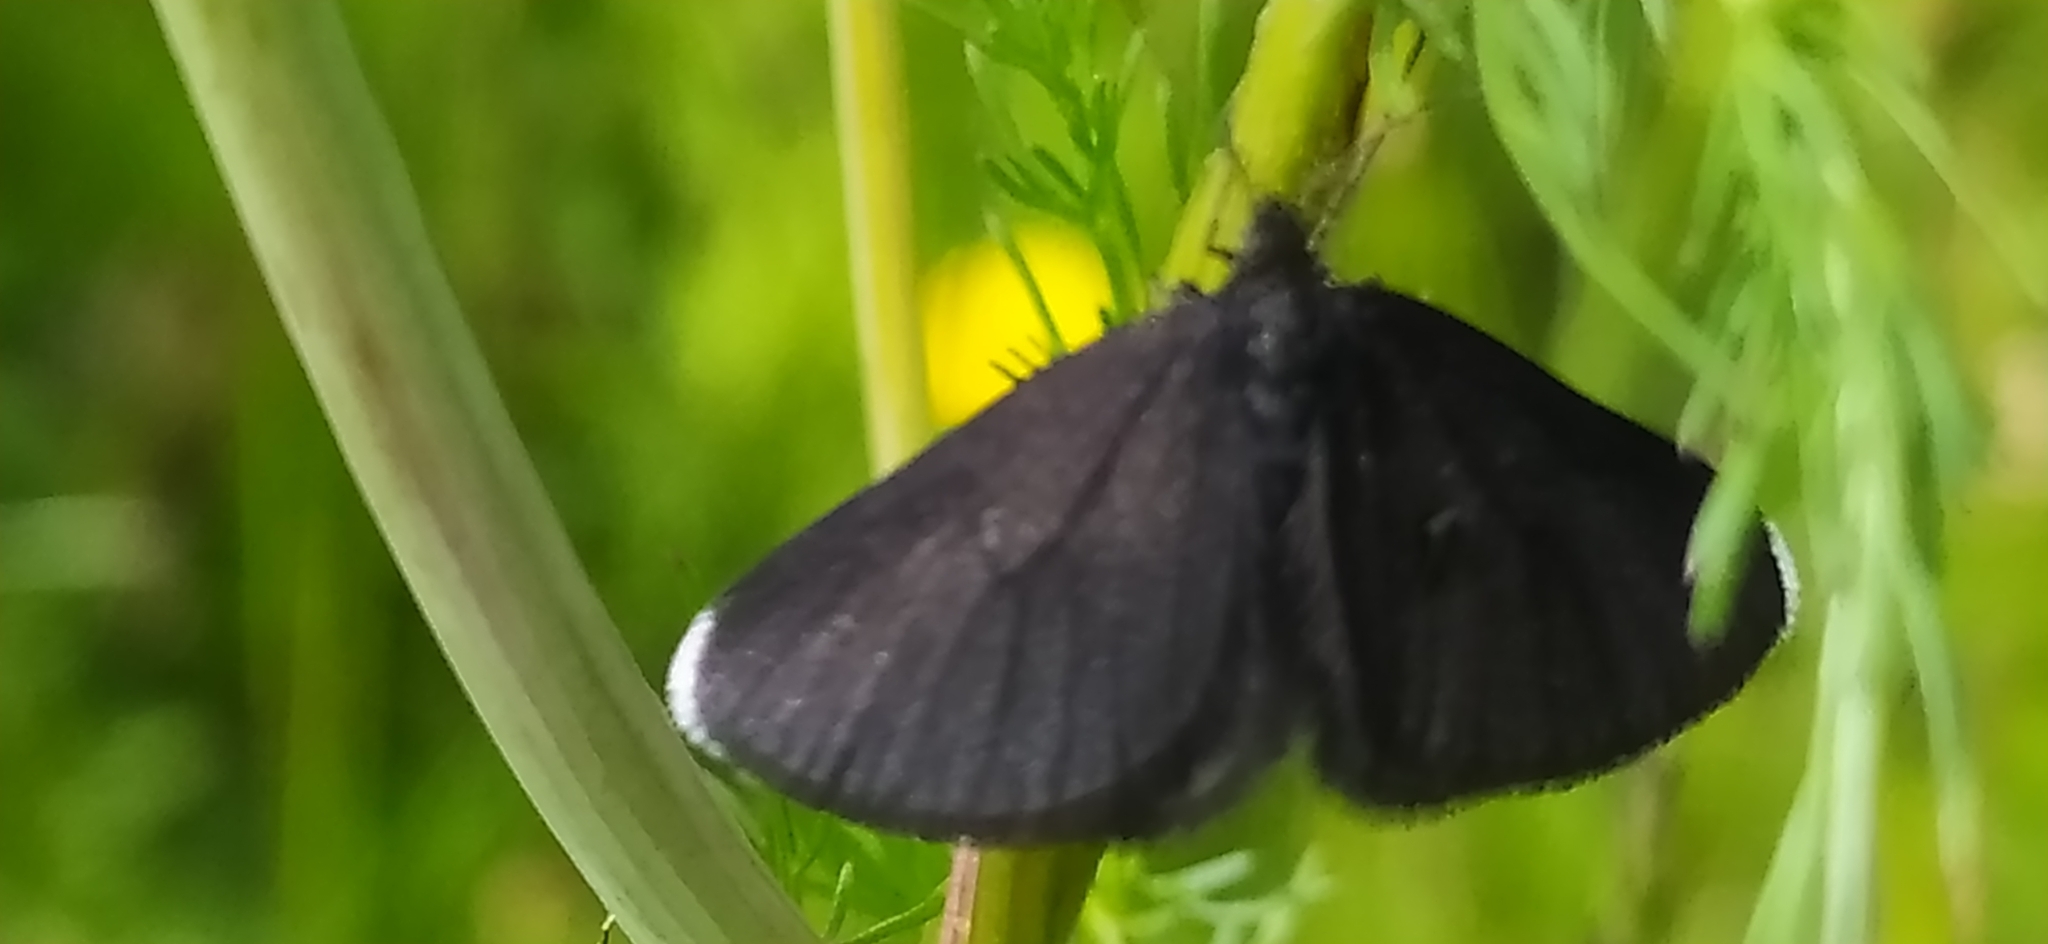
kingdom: Animalia
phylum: Arthropoda
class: Insecta
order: Lepidoptera
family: Geometridae
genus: Odezia
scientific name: Odezia atrata
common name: Chimney sweeper
